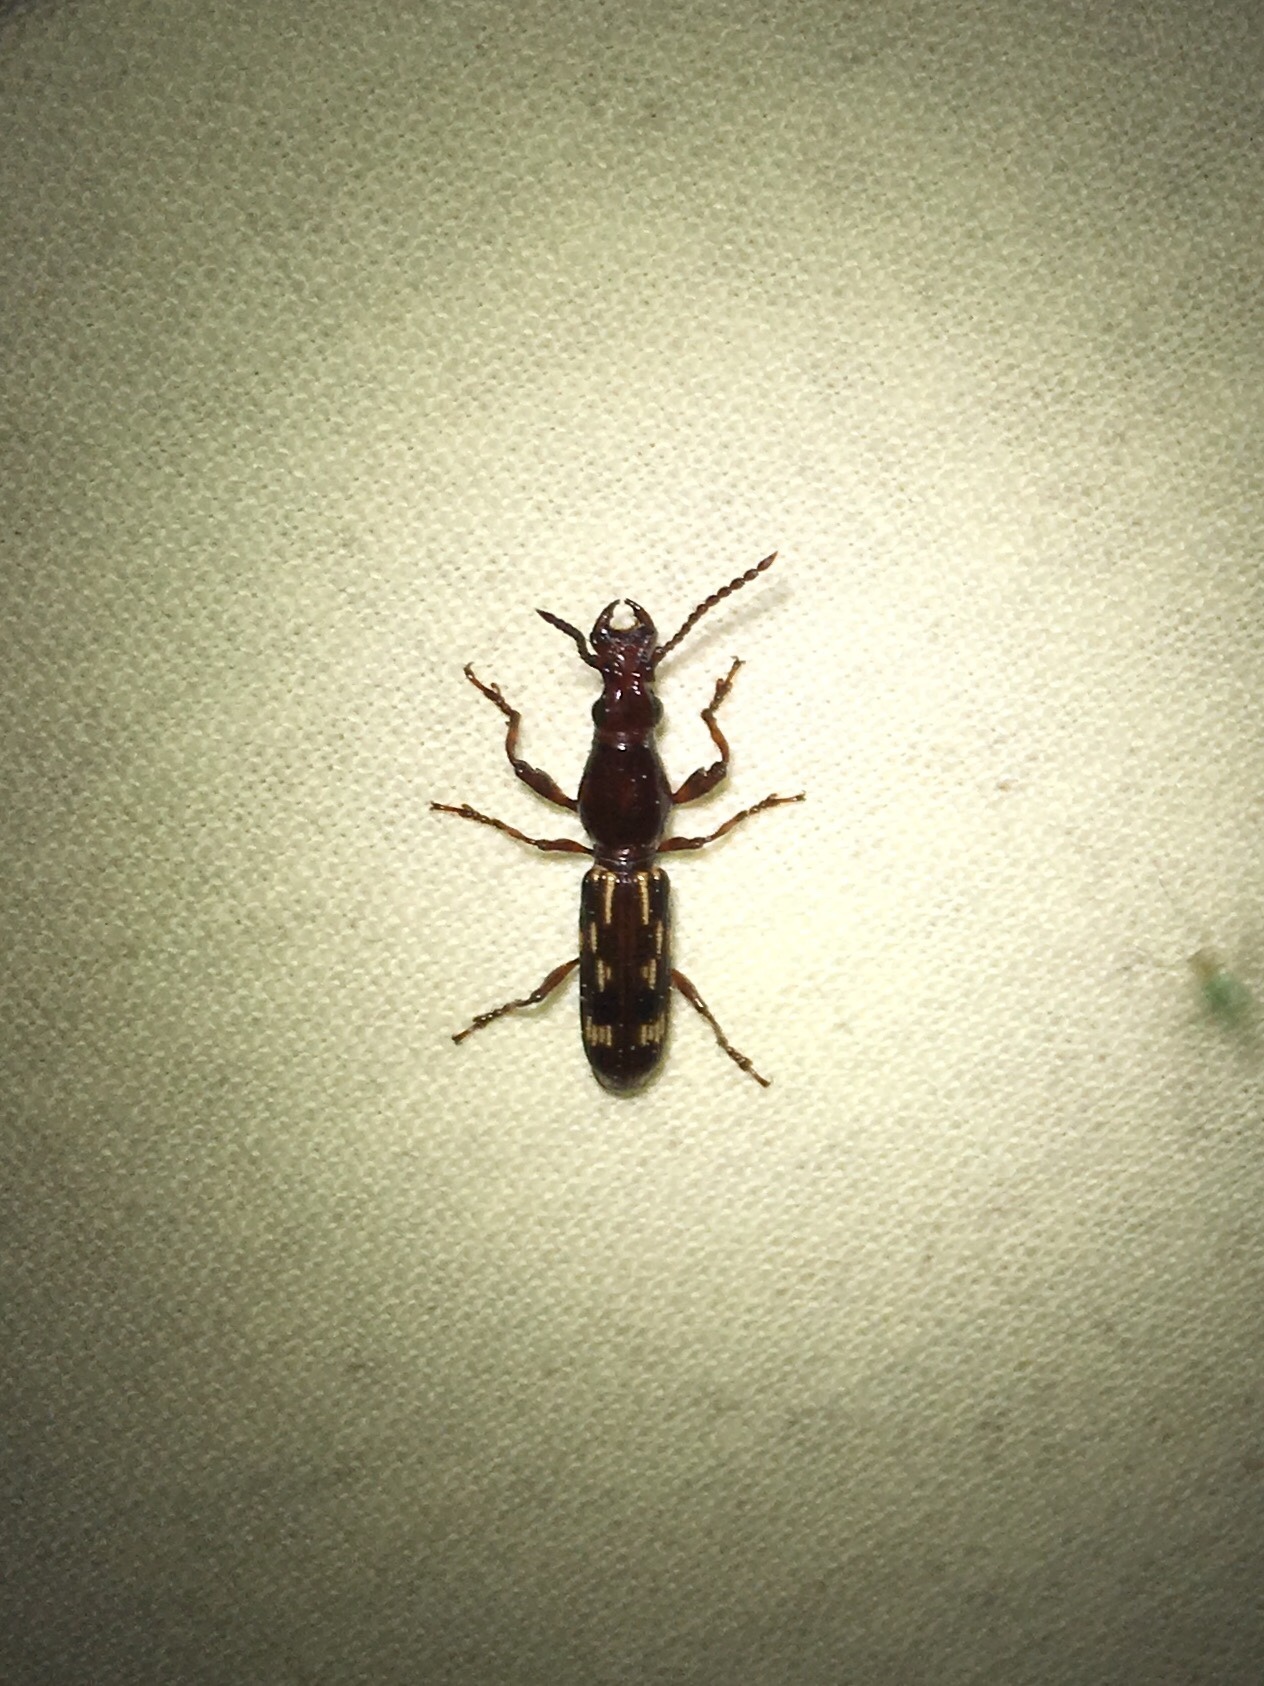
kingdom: Animalia
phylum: Arthropoda
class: Insecta
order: Coleoptera
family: Brentidae
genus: Arrenodes
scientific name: Arrenodes minutus
